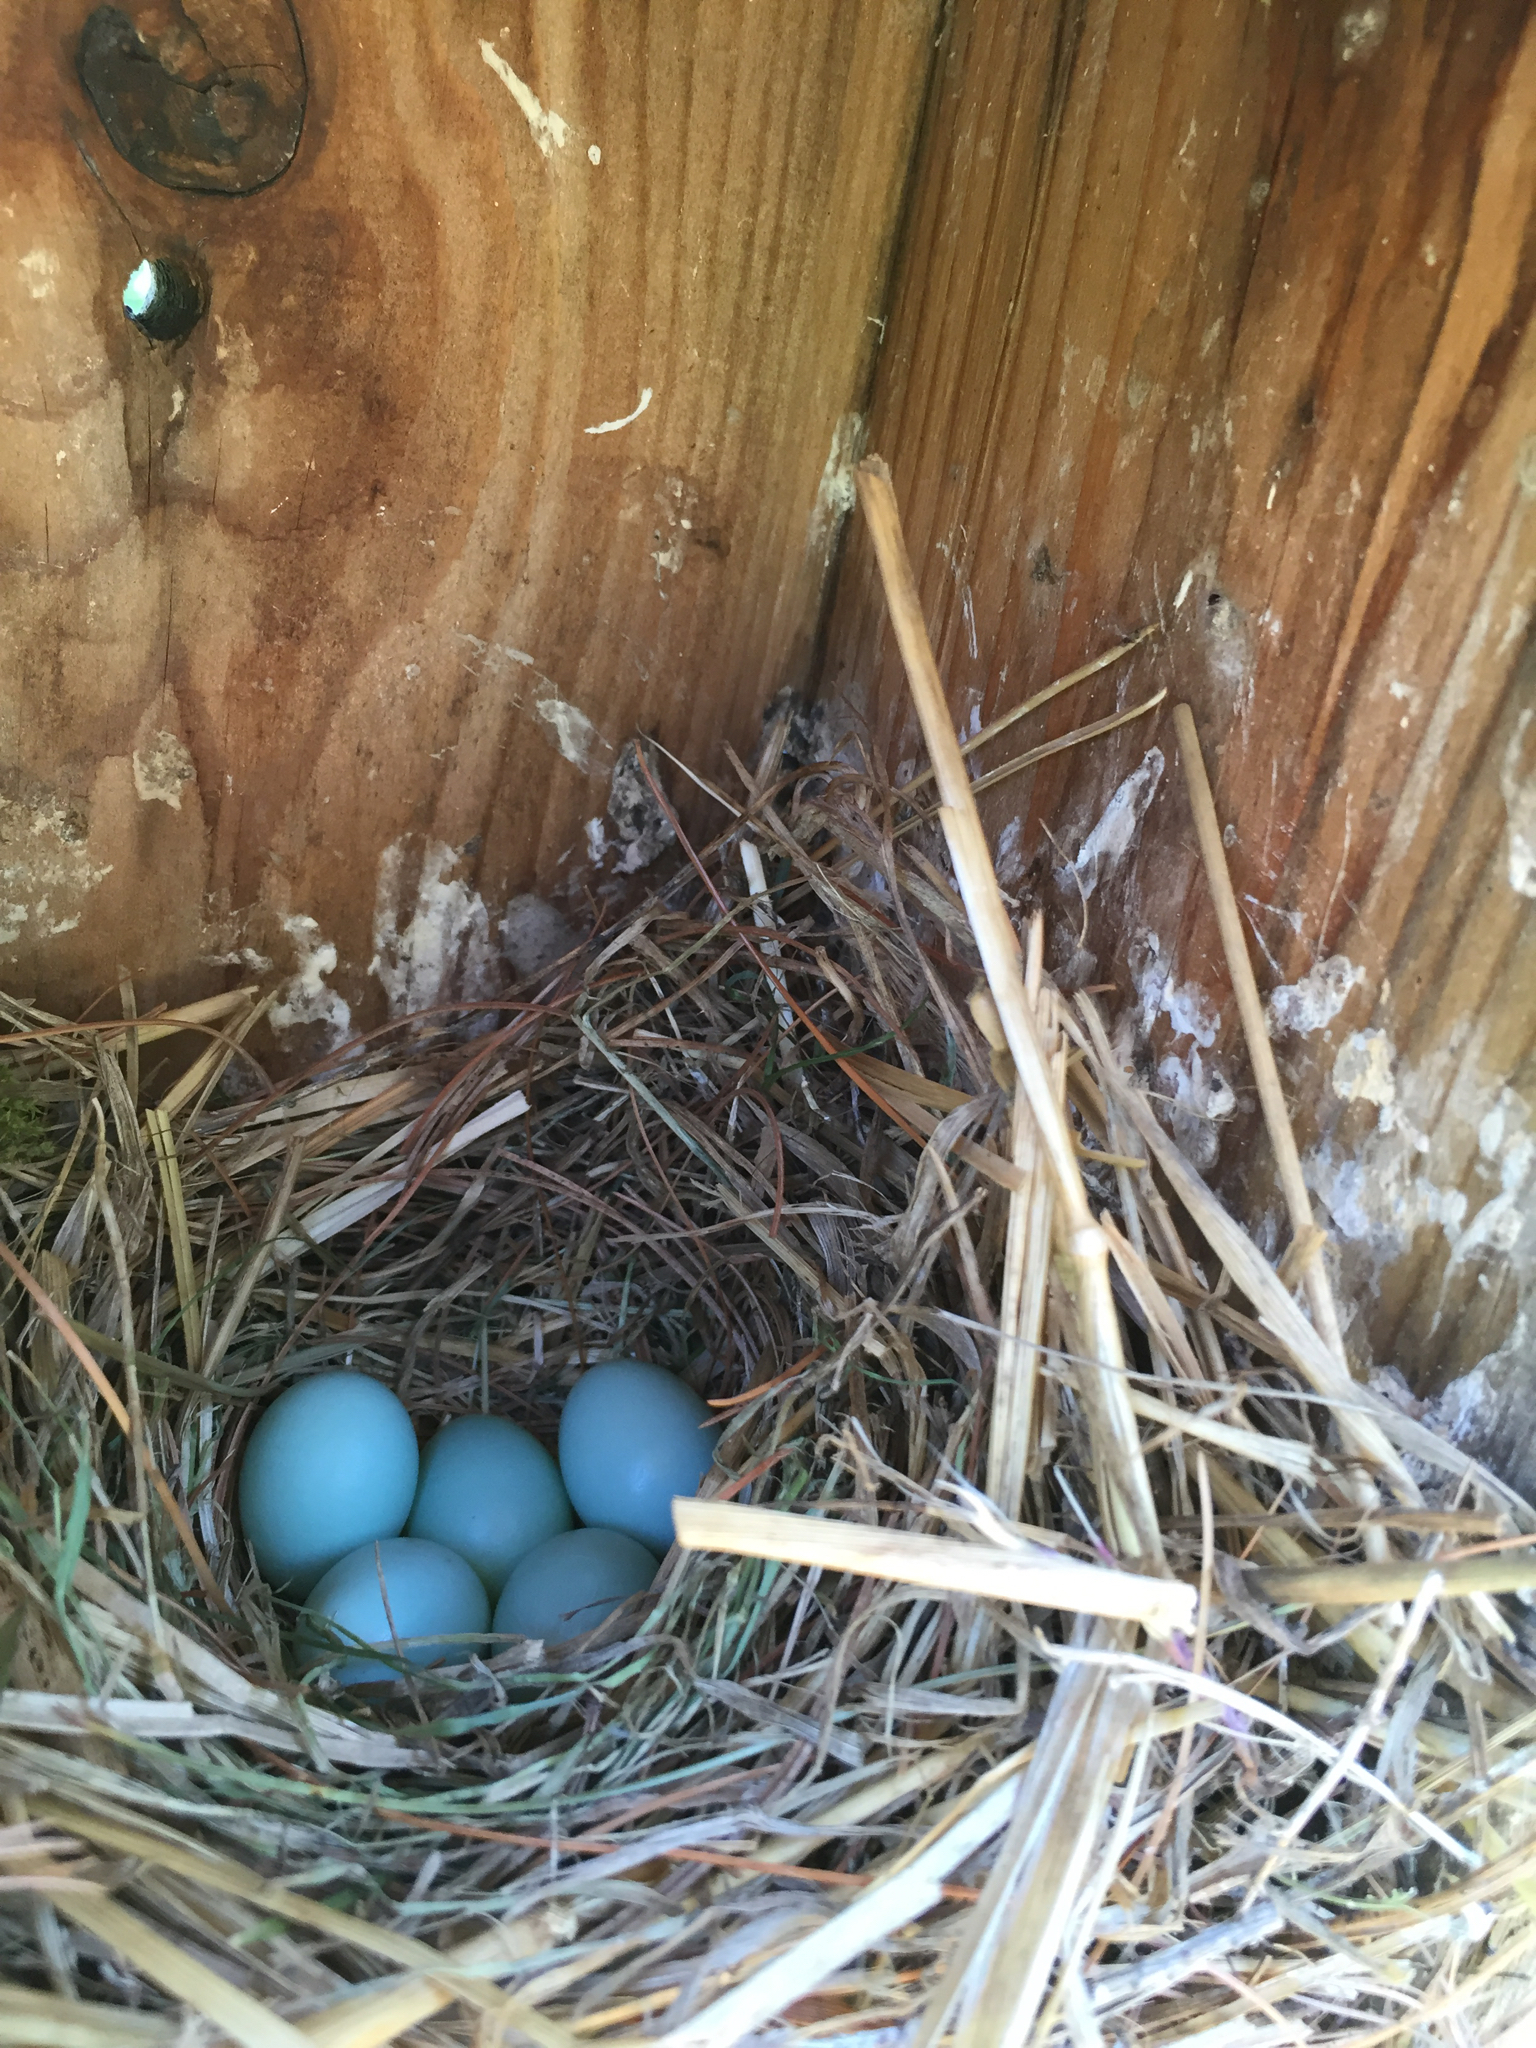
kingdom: Animalia
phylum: Chordata
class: Aves
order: Passeriformes
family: Turdidae
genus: Sialia
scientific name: Sialia sialis
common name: Eastern bluebird
